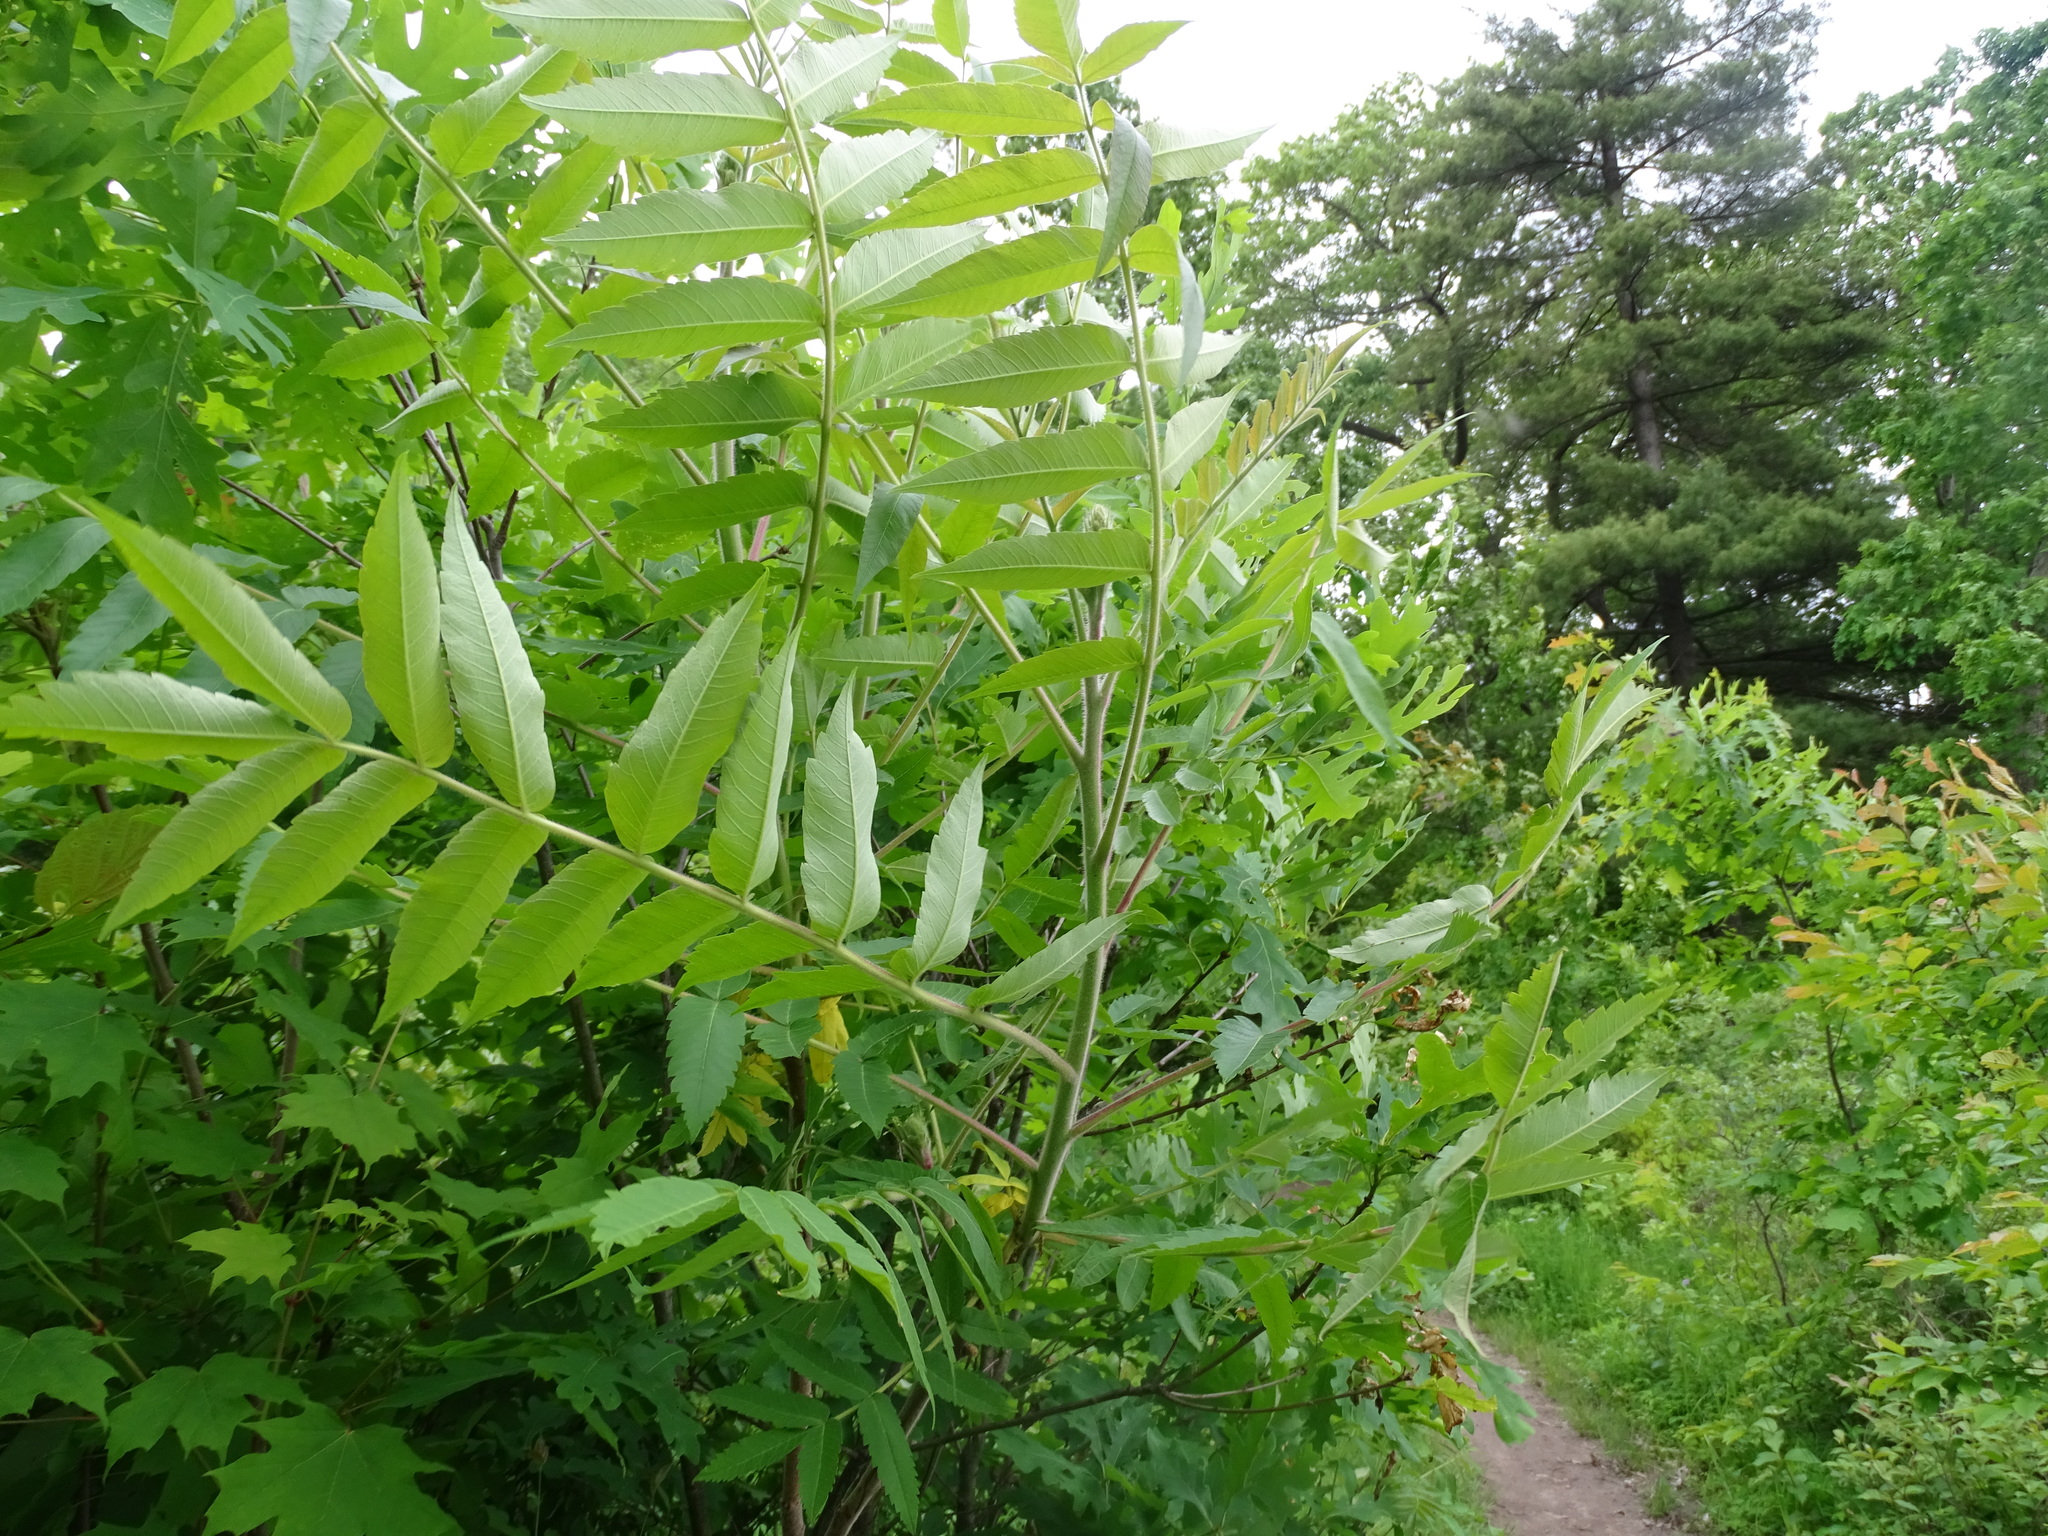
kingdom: Plantae
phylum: Tracheophyta
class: Magnoliopsida
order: Sapindales
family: Anacardiaceae
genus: Rhus
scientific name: Rhus typhina
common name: Staghorn sumac
